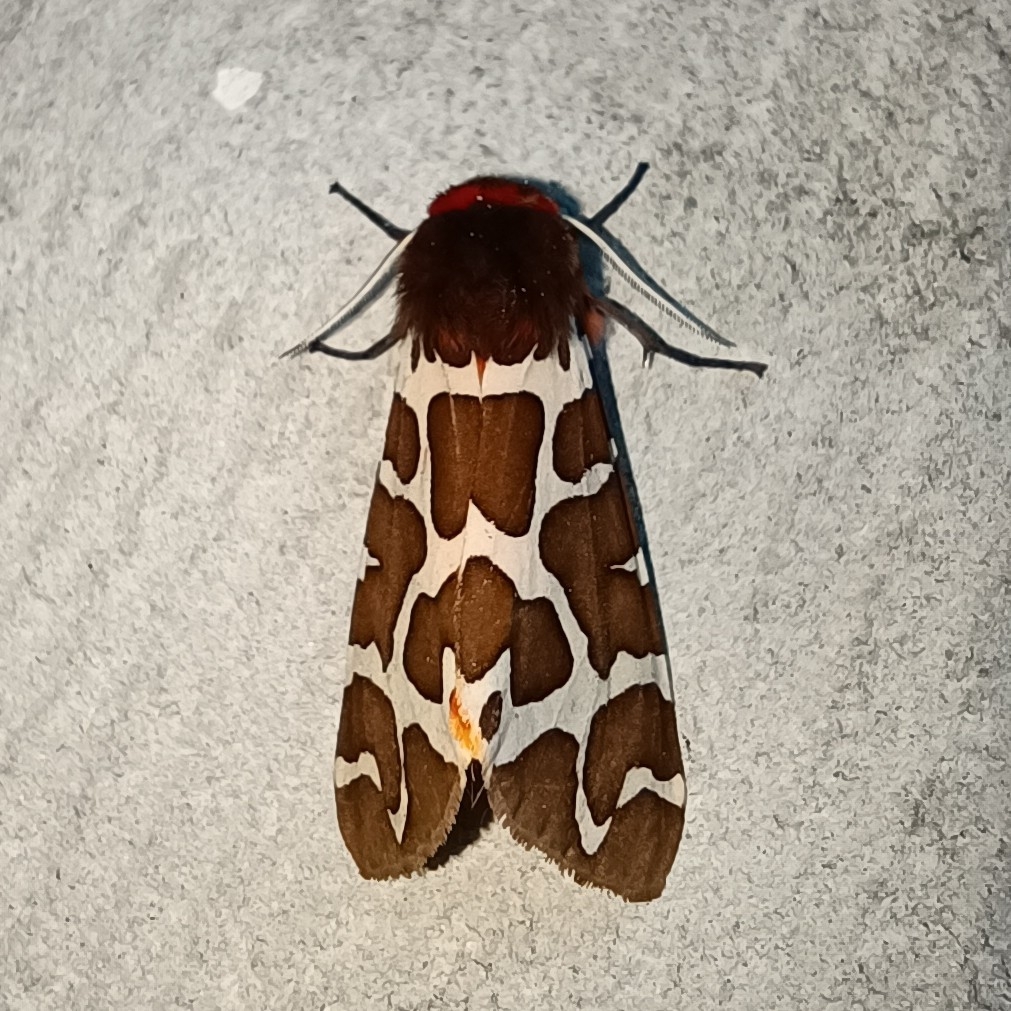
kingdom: Animalia
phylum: Arthropoda
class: Insecta
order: Lepidoptera
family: Erebidae
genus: Arctia
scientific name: Arctia caja
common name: Garden tiger
